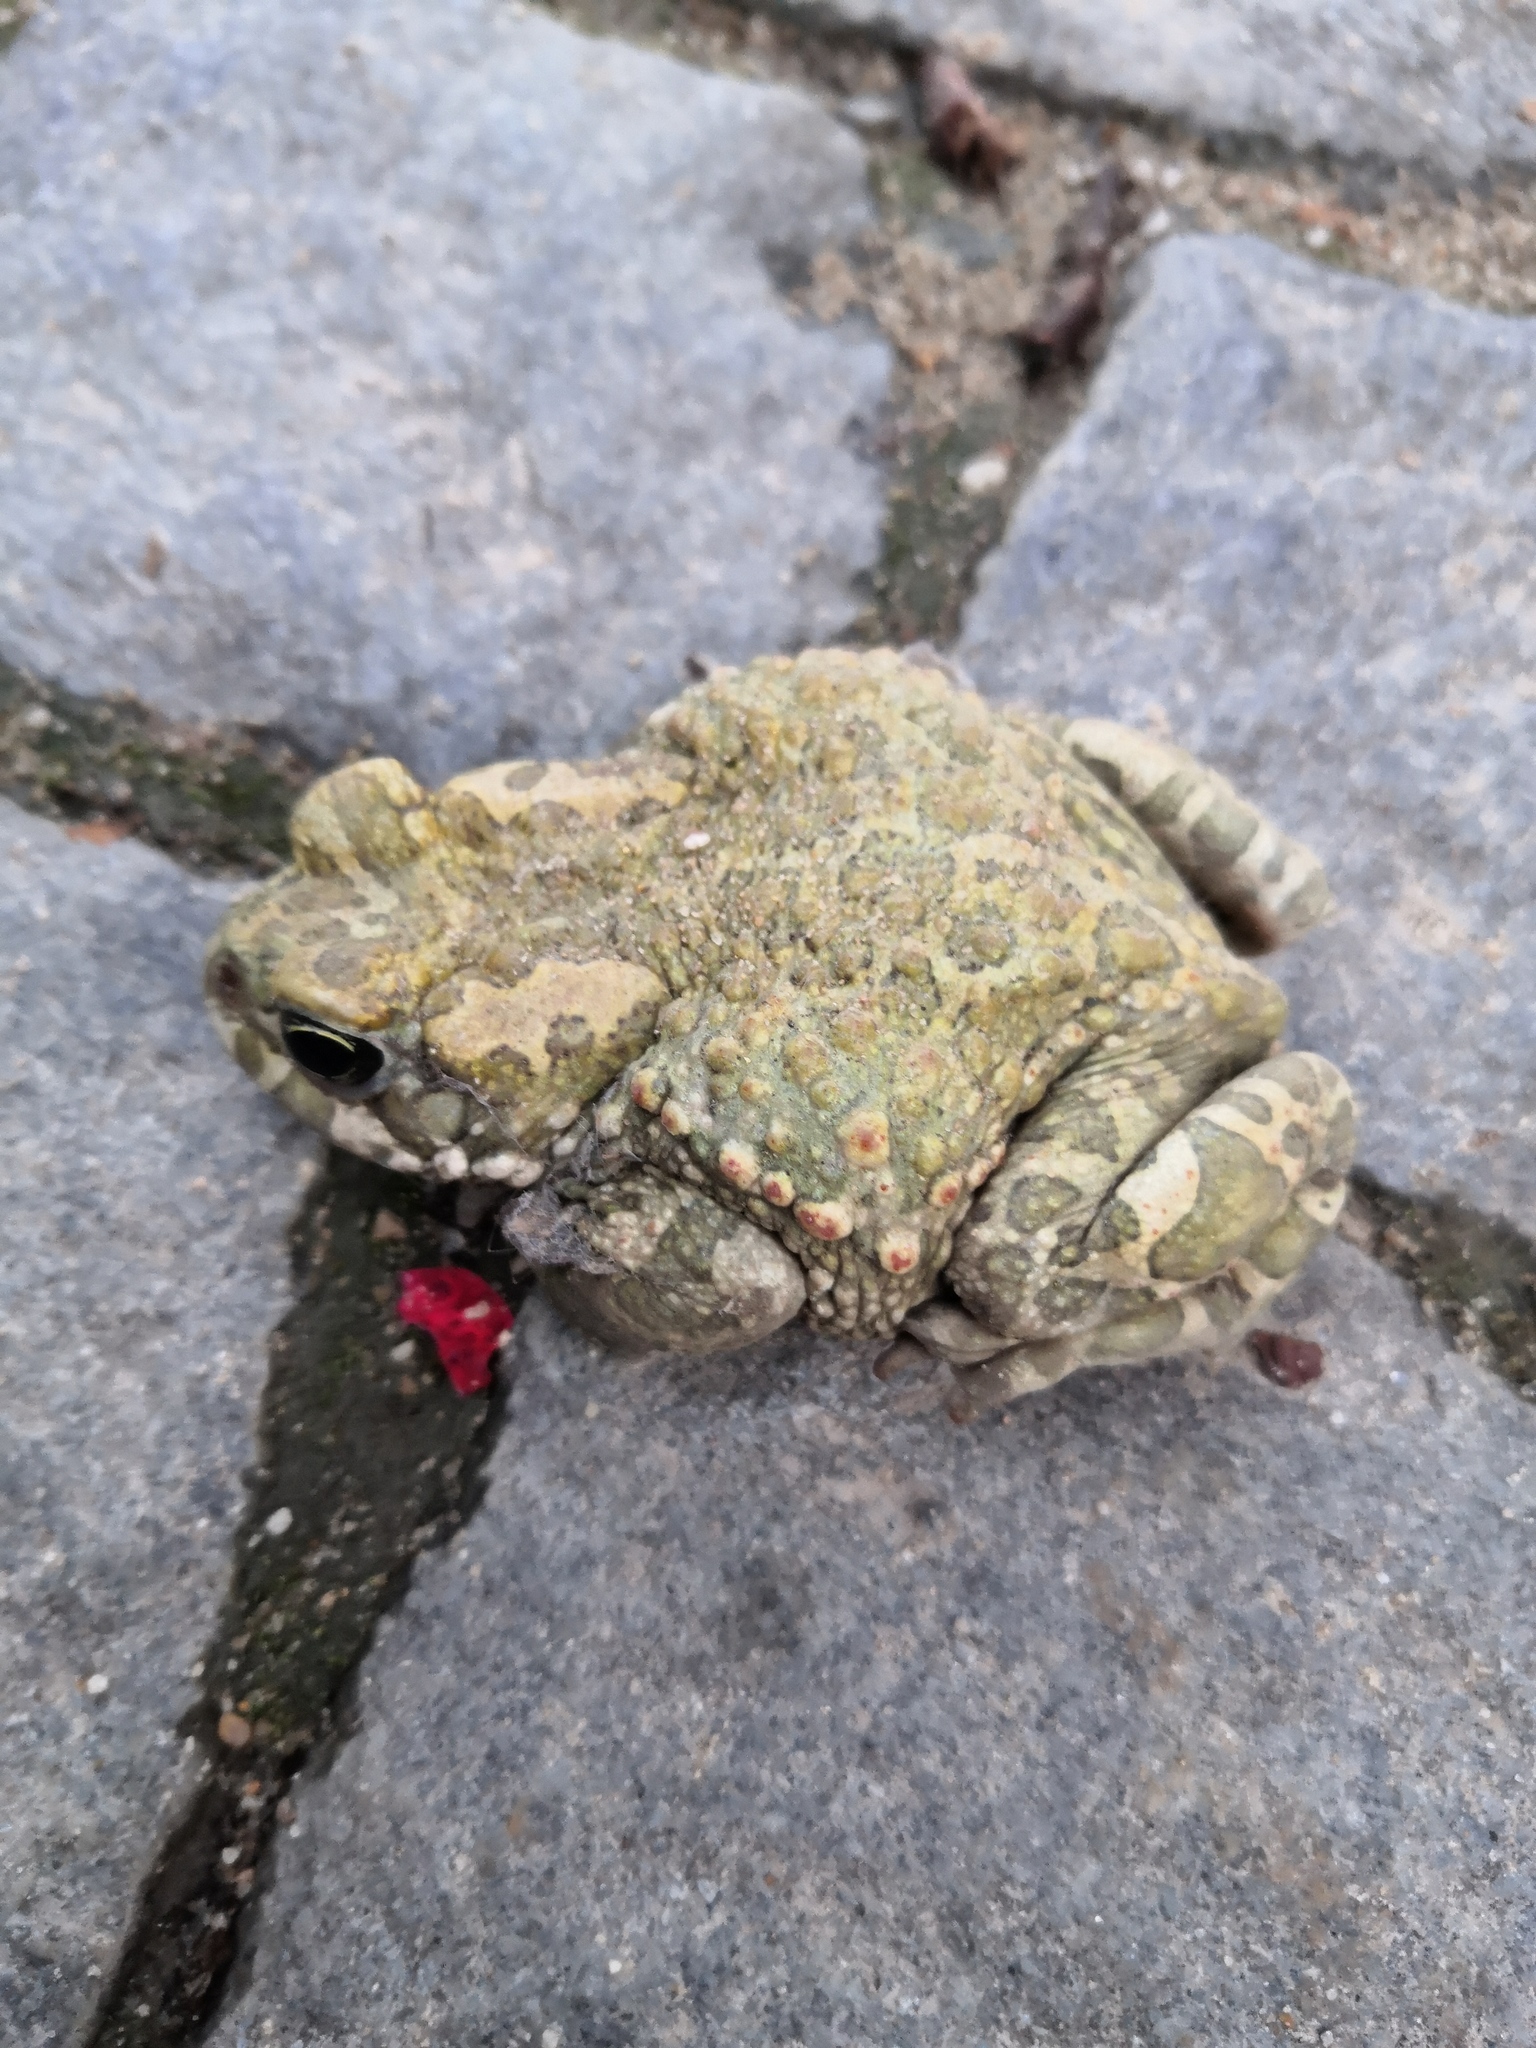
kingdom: Animalia
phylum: Chordata
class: Amphibia
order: Anura
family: Bufonidae
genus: Bufotes
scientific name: Bufotes viridis
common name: European green toad
